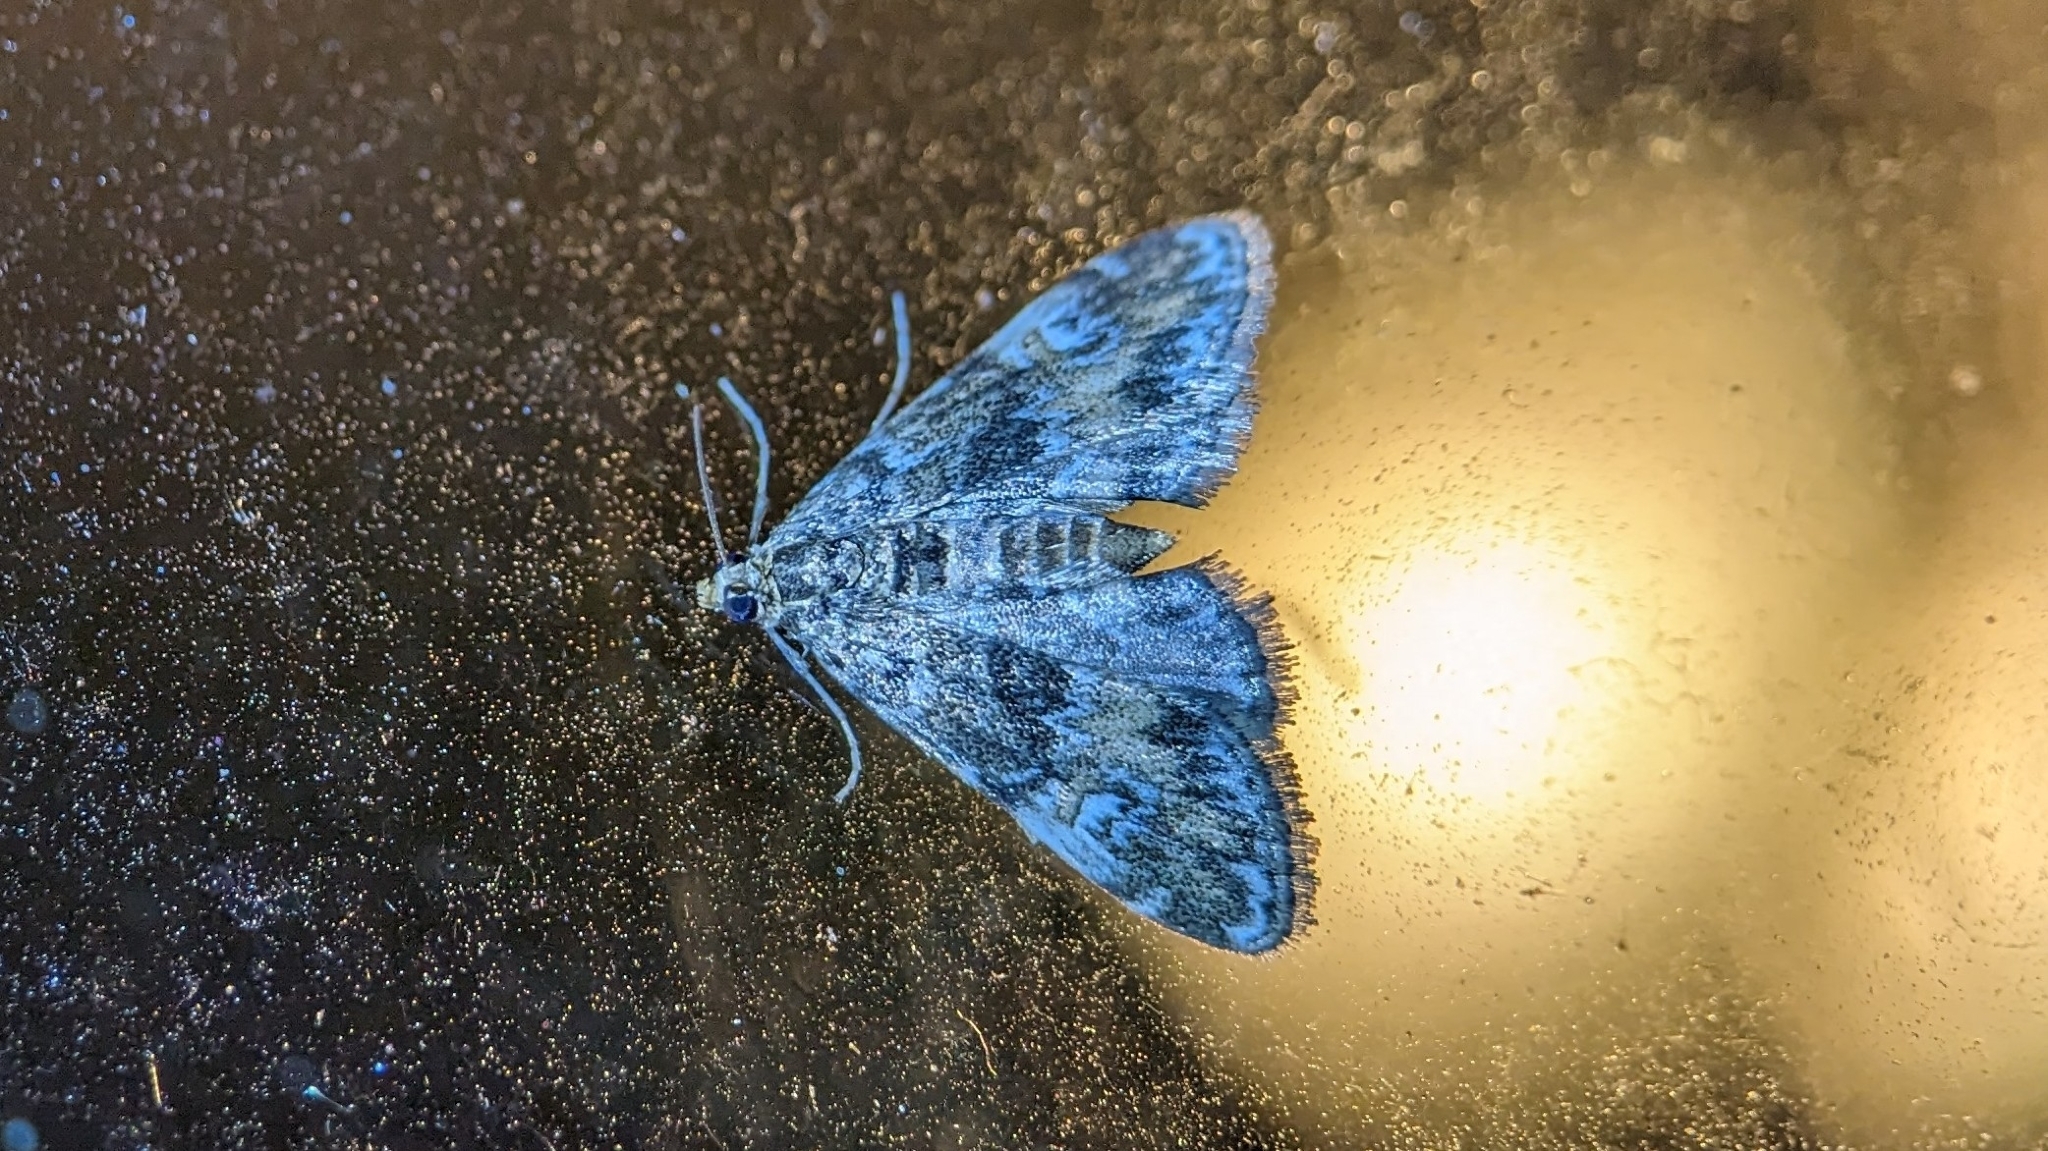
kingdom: Animalia
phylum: Arthropoda
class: Insecta
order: Lepidoptera
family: Crambidae
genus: Elophila
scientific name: Elophila obliteralis
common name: Waterlily leafcutter moth
